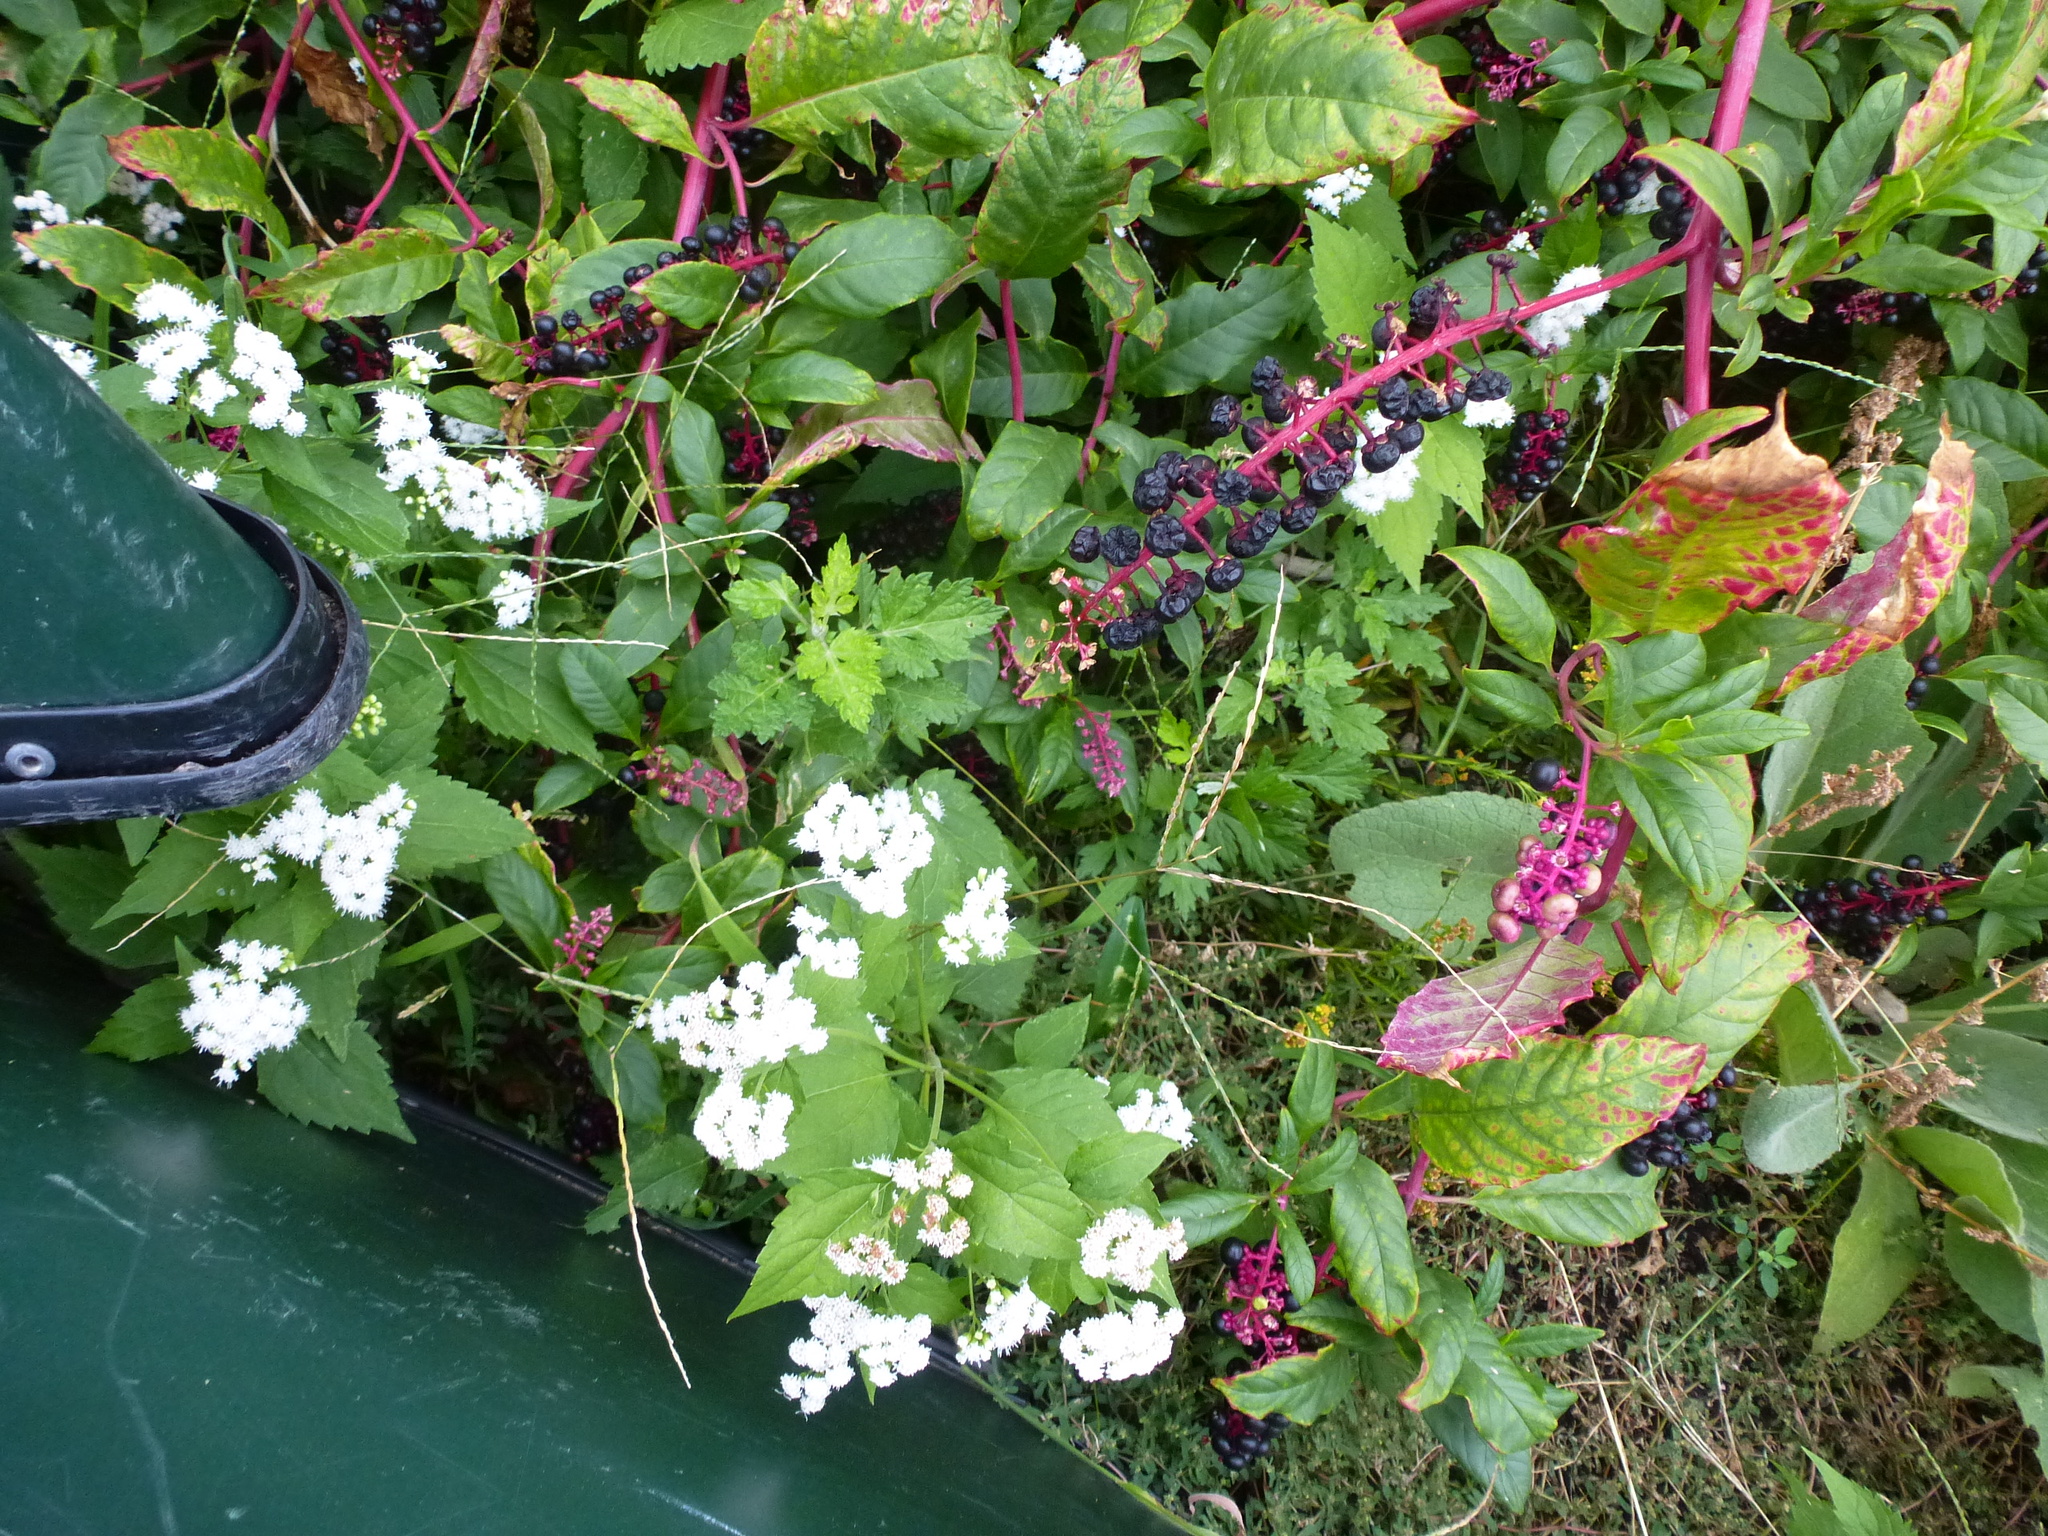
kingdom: Plantae
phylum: Tracheophyta
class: Magnoliopsida
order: Asterales
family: Asteraceae
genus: Ageratina
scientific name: Ageratina altissima
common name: White snakeroot
